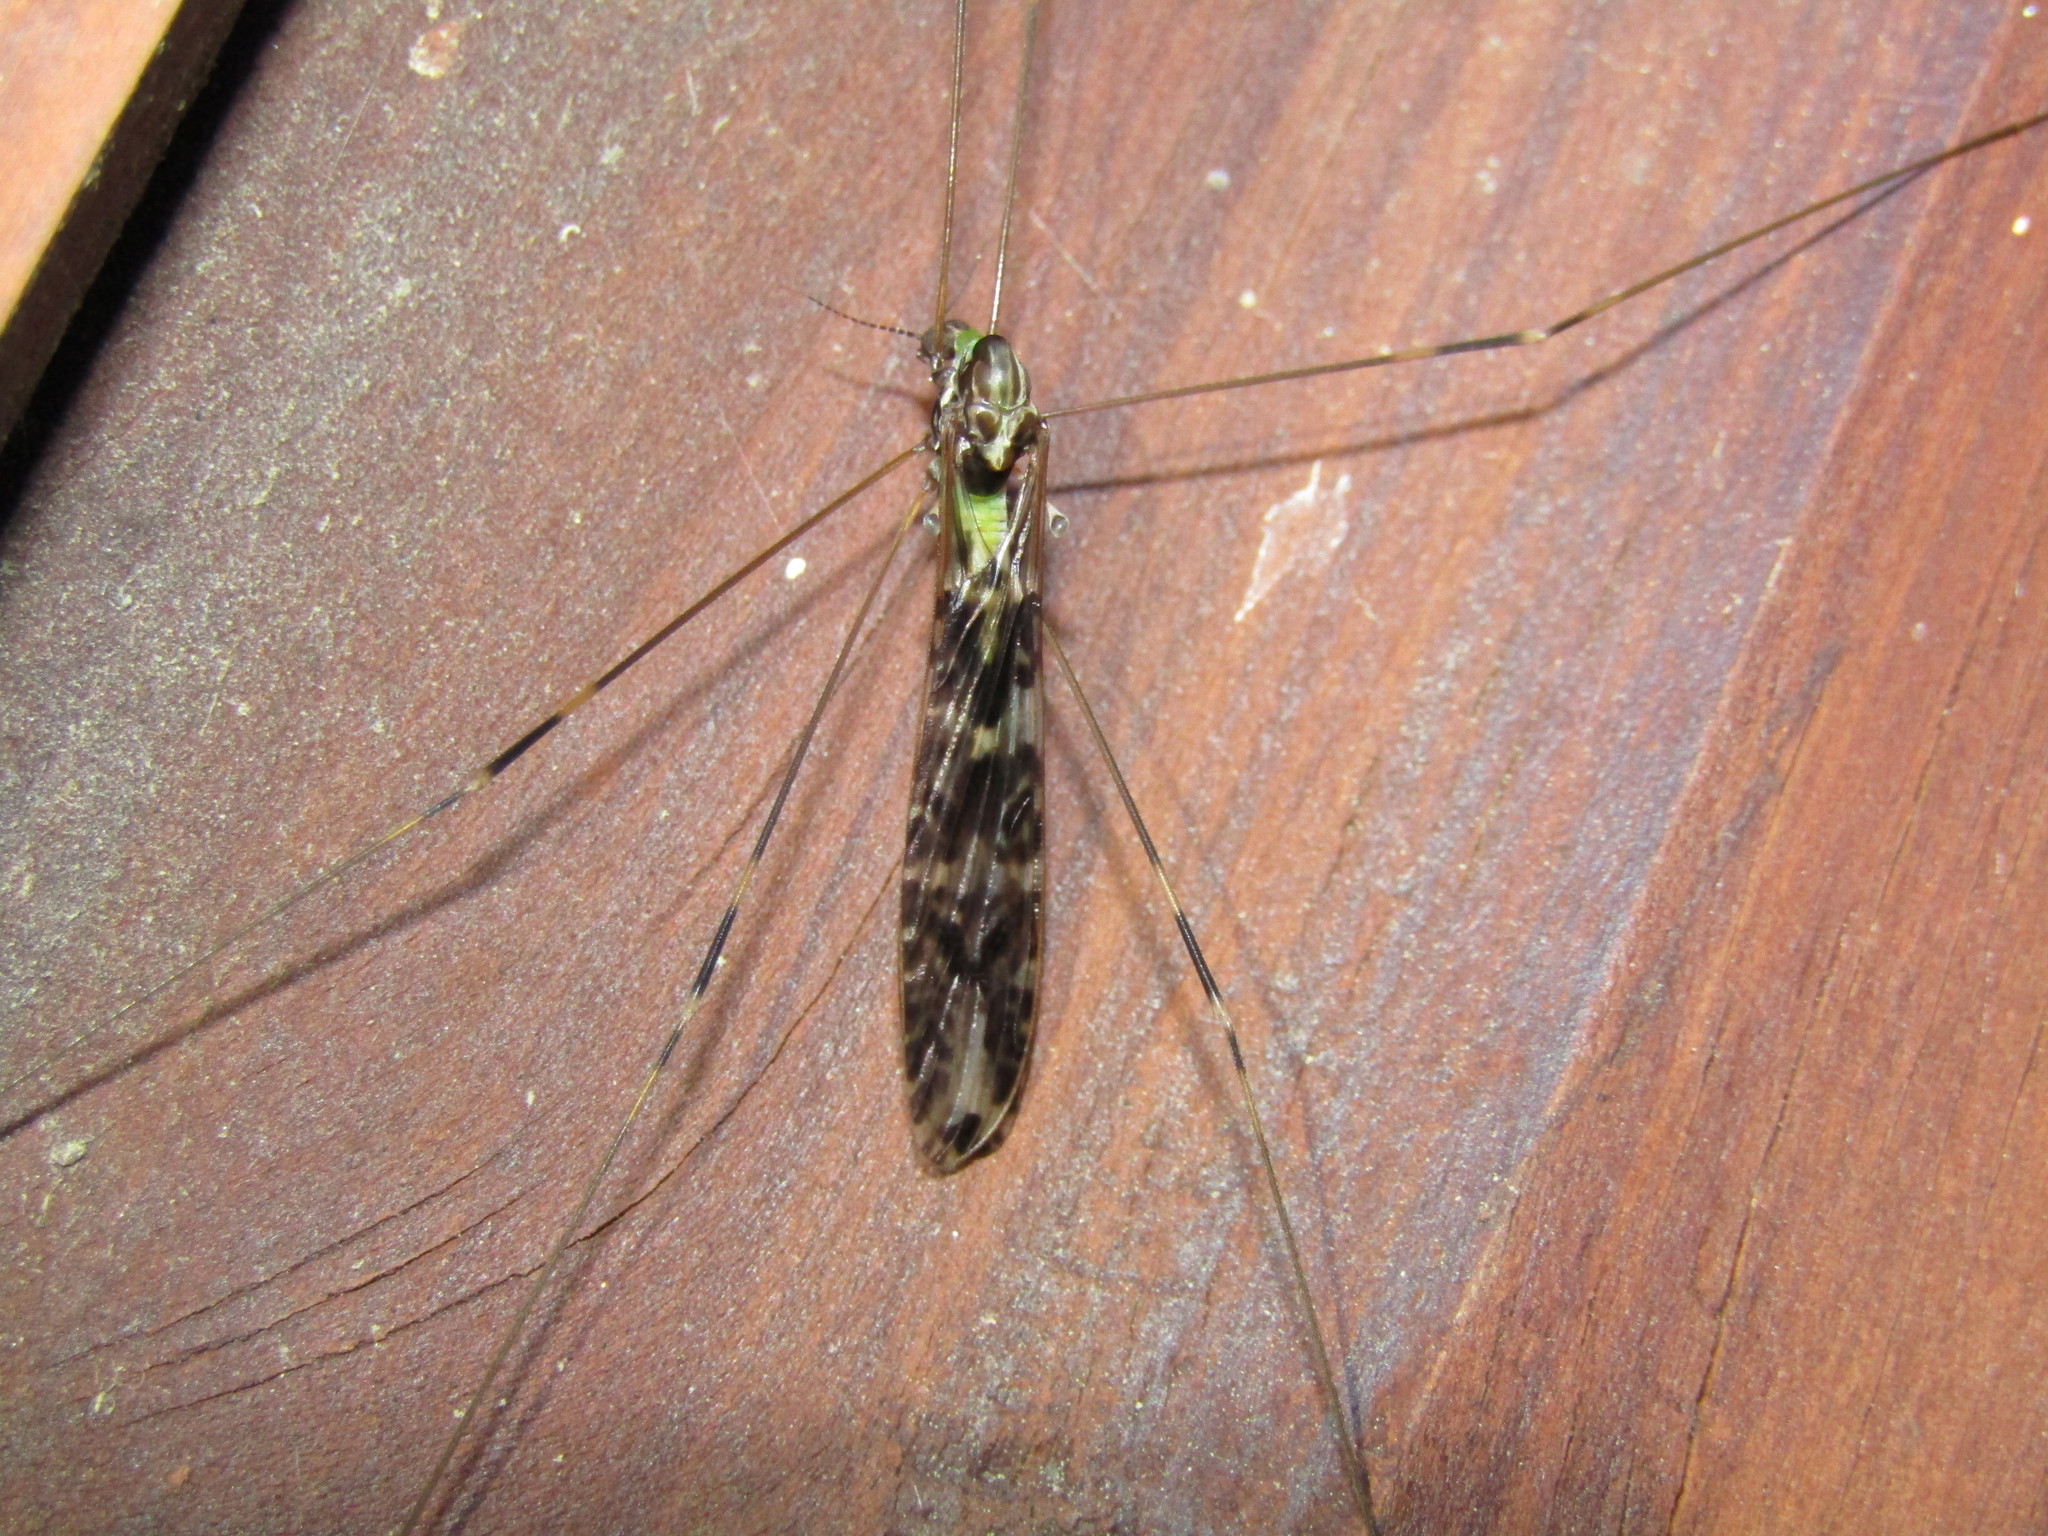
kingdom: Animalia
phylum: Arthropoda
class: Insecta
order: Diptera
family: Limoniidae
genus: Discobola
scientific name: Discobola dohrni
